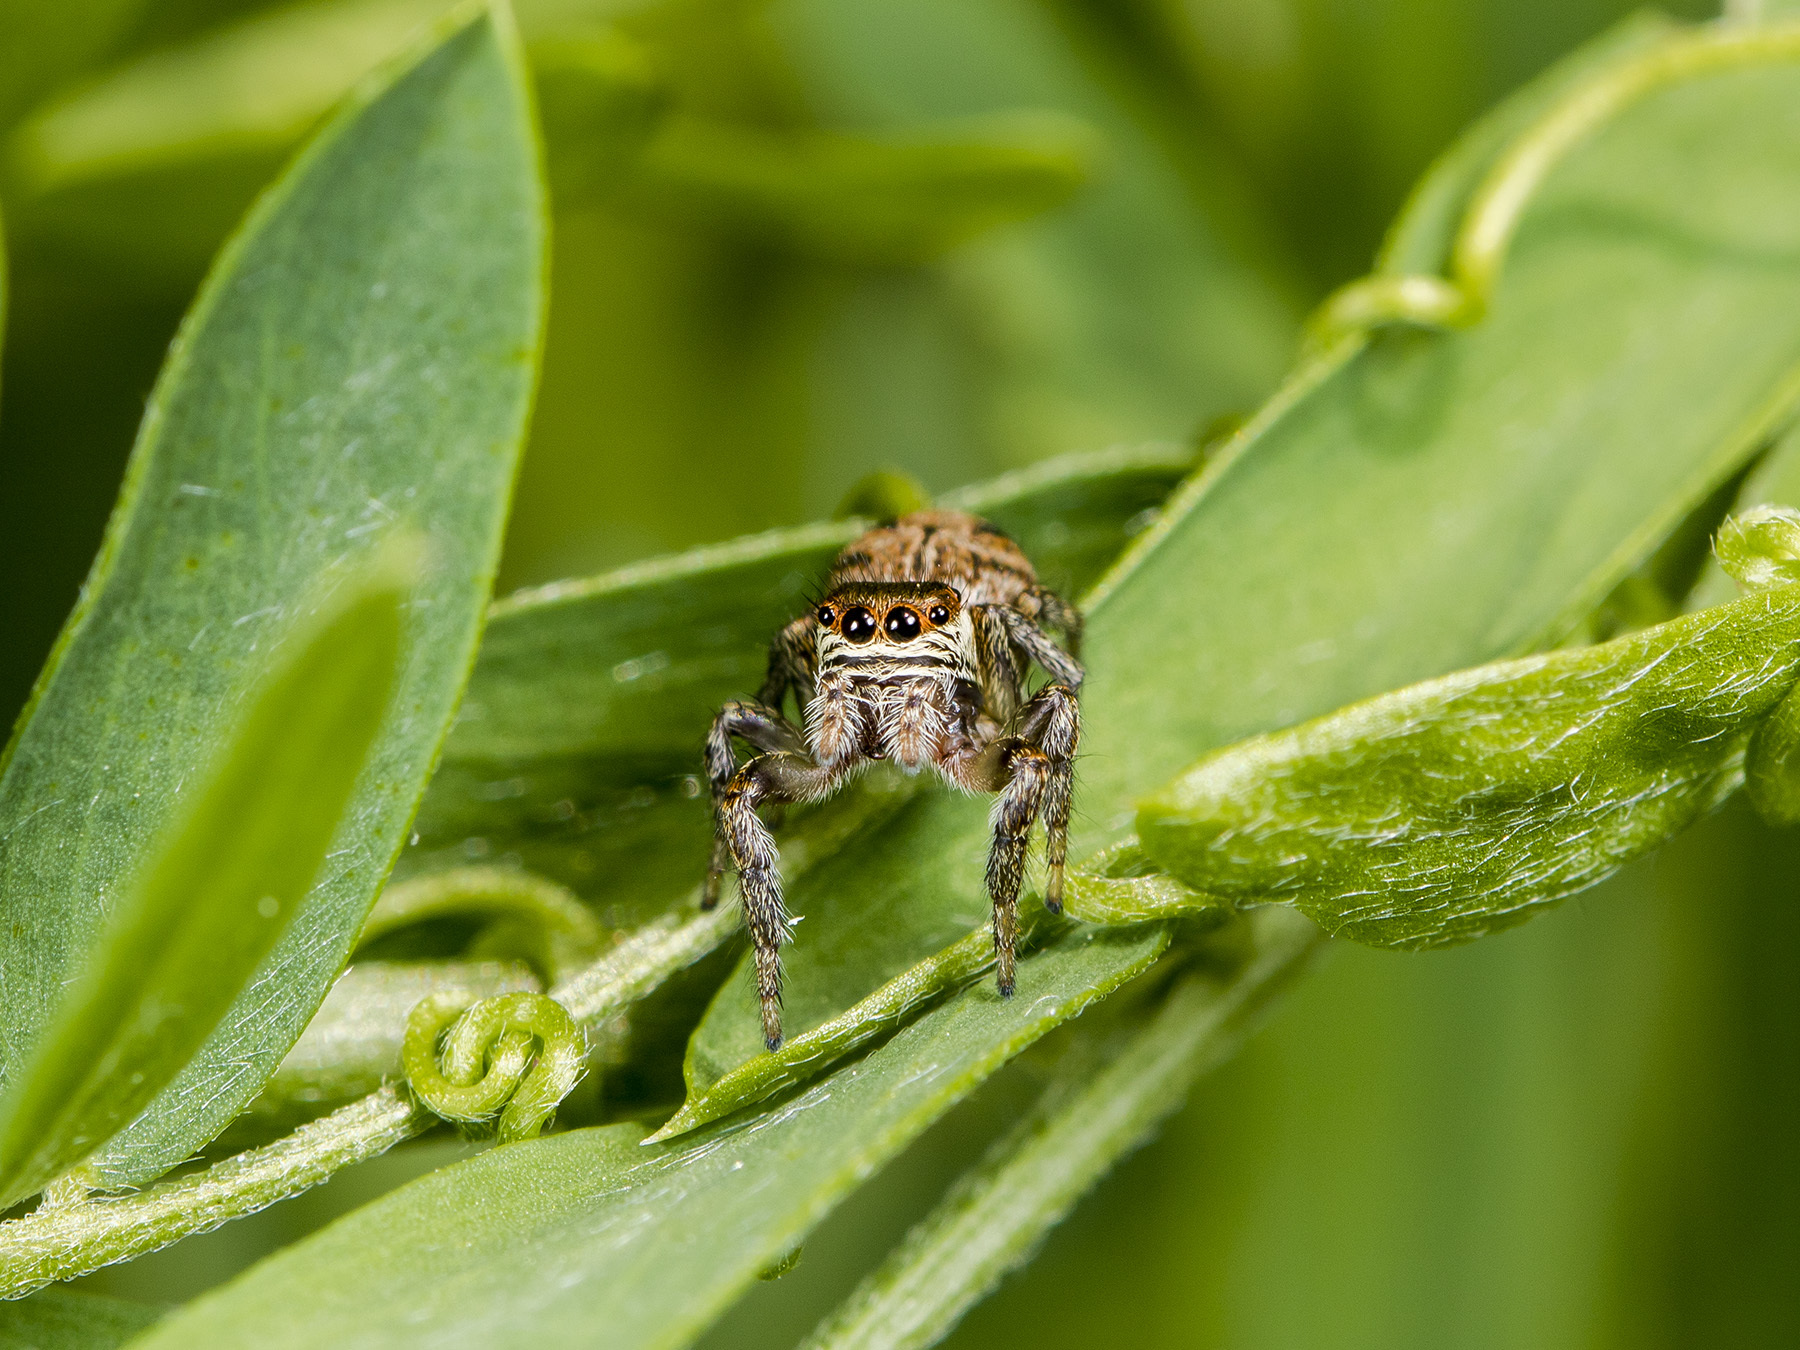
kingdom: Animalia
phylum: Arthropoda
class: Arachnida
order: Araneae
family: Salticidae
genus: Evarcha
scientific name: Evarcha arcuata
